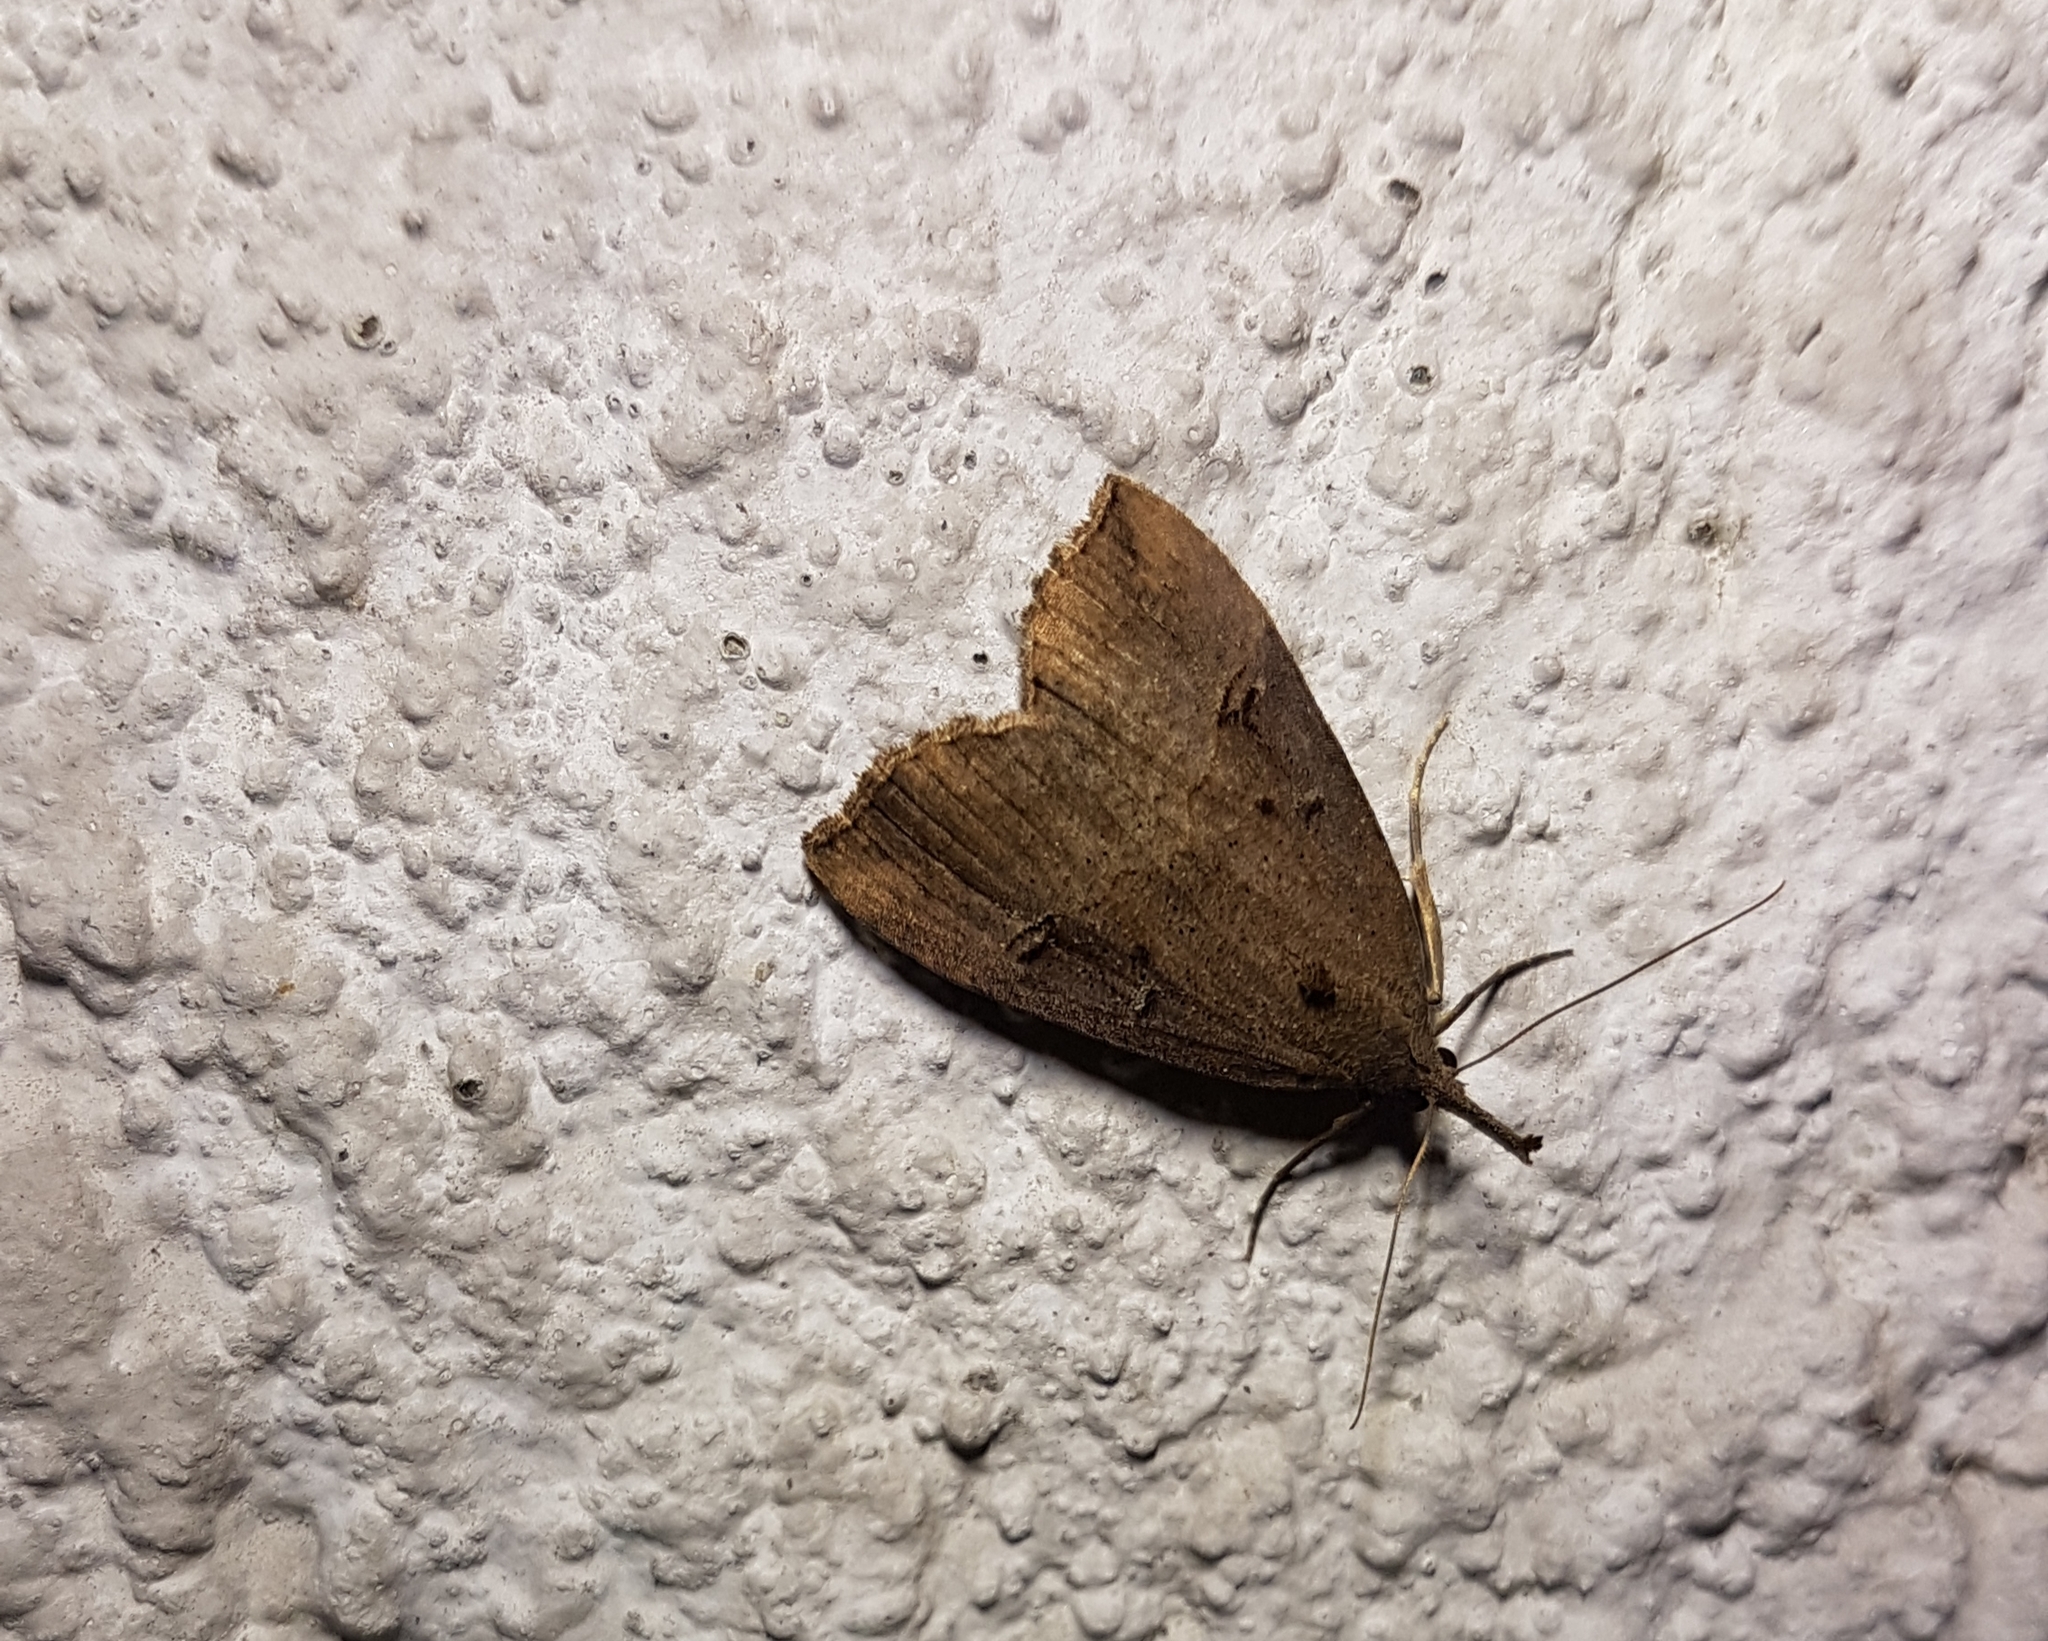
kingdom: Animalia
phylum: Arthropoda
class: Insecta
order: Lepidoptera
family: Erebidae
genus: Hypena
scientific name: Hypena rostralis
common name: Buttoned snout
